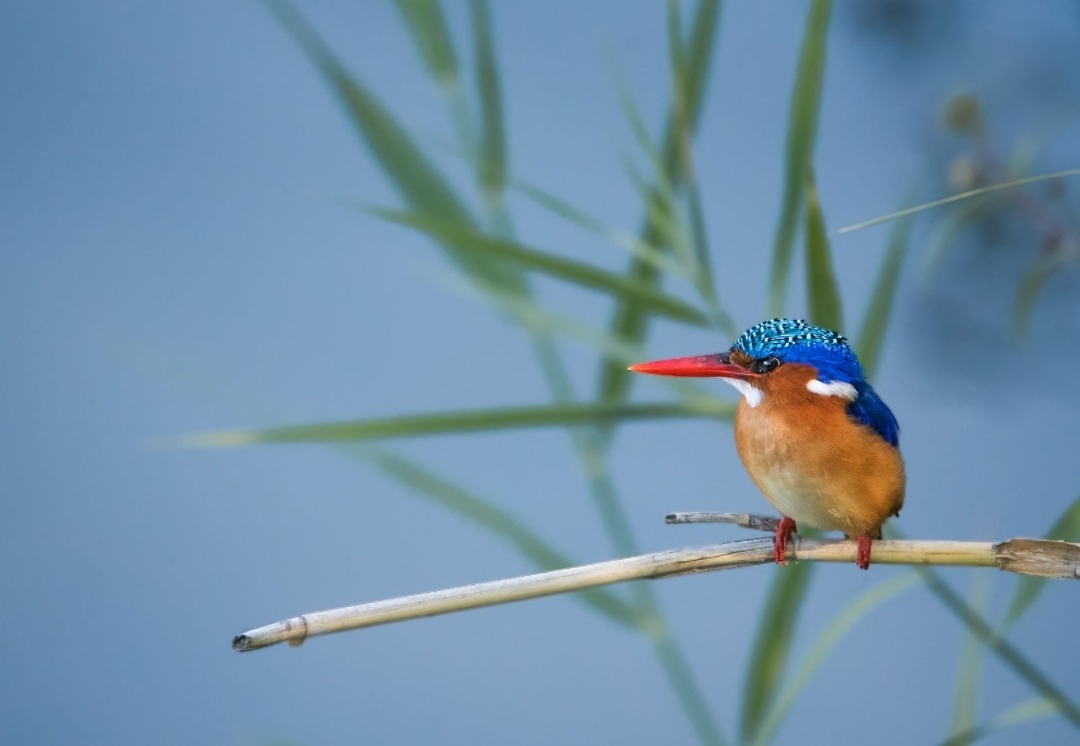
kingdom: Animalia
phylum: Chordata
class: Aves
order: Coraciiformes
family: Alcedinidae
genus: Corythornis
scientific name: Corythornis cristatus
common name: Malachite kingfisher
